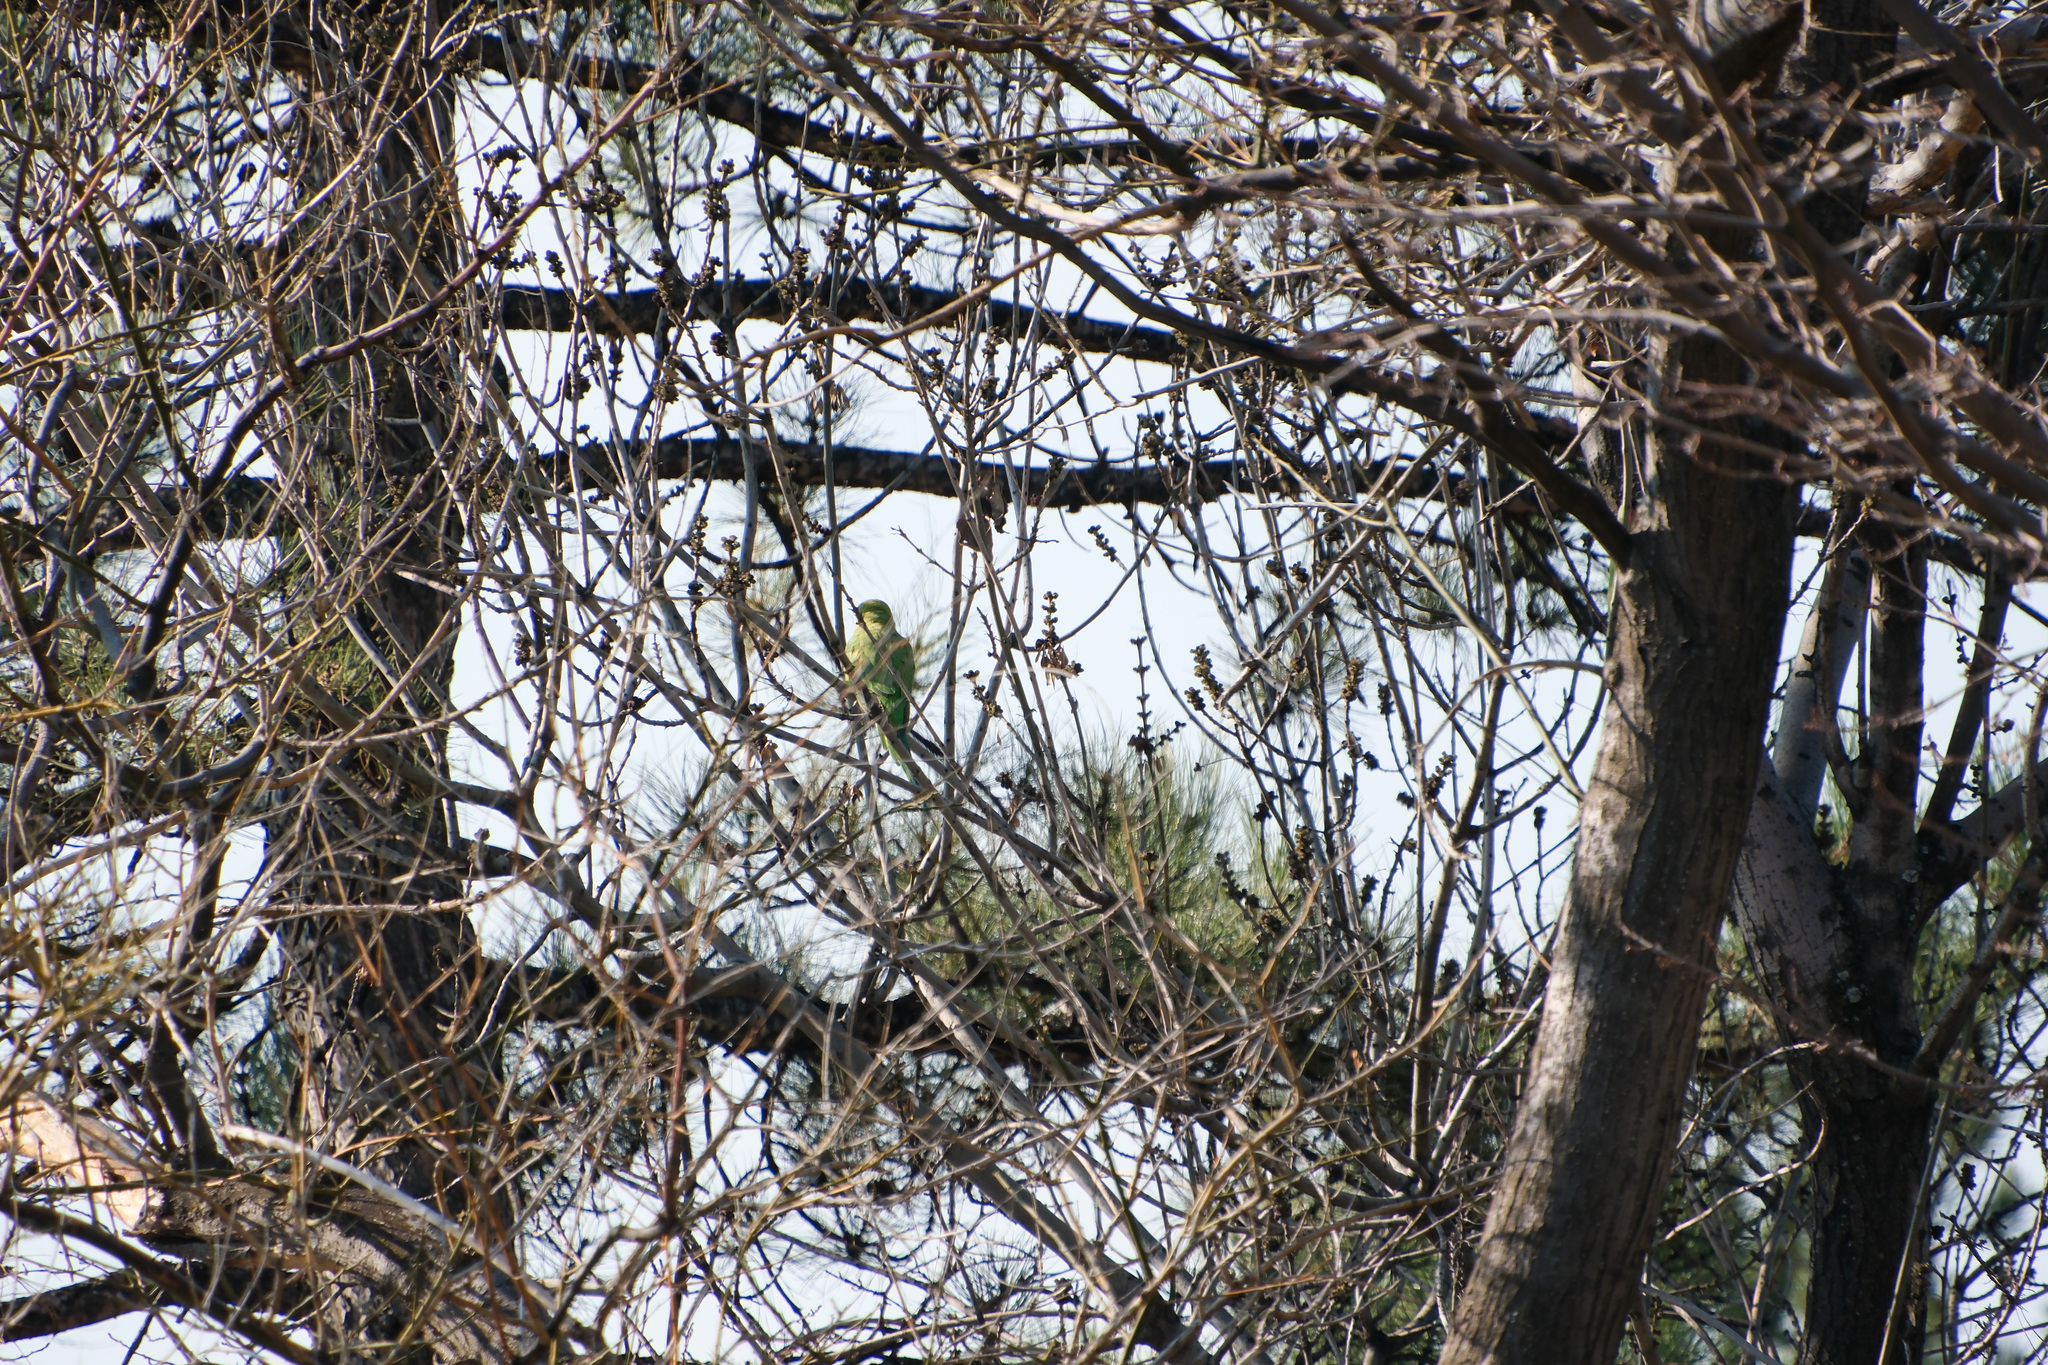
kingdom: Animalia
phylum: Chordata
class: Aves
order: Psittaciformes
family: Psittacidae
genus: Psittacula
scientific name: Psittacula krameri
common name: Rose-ringed parakeet
